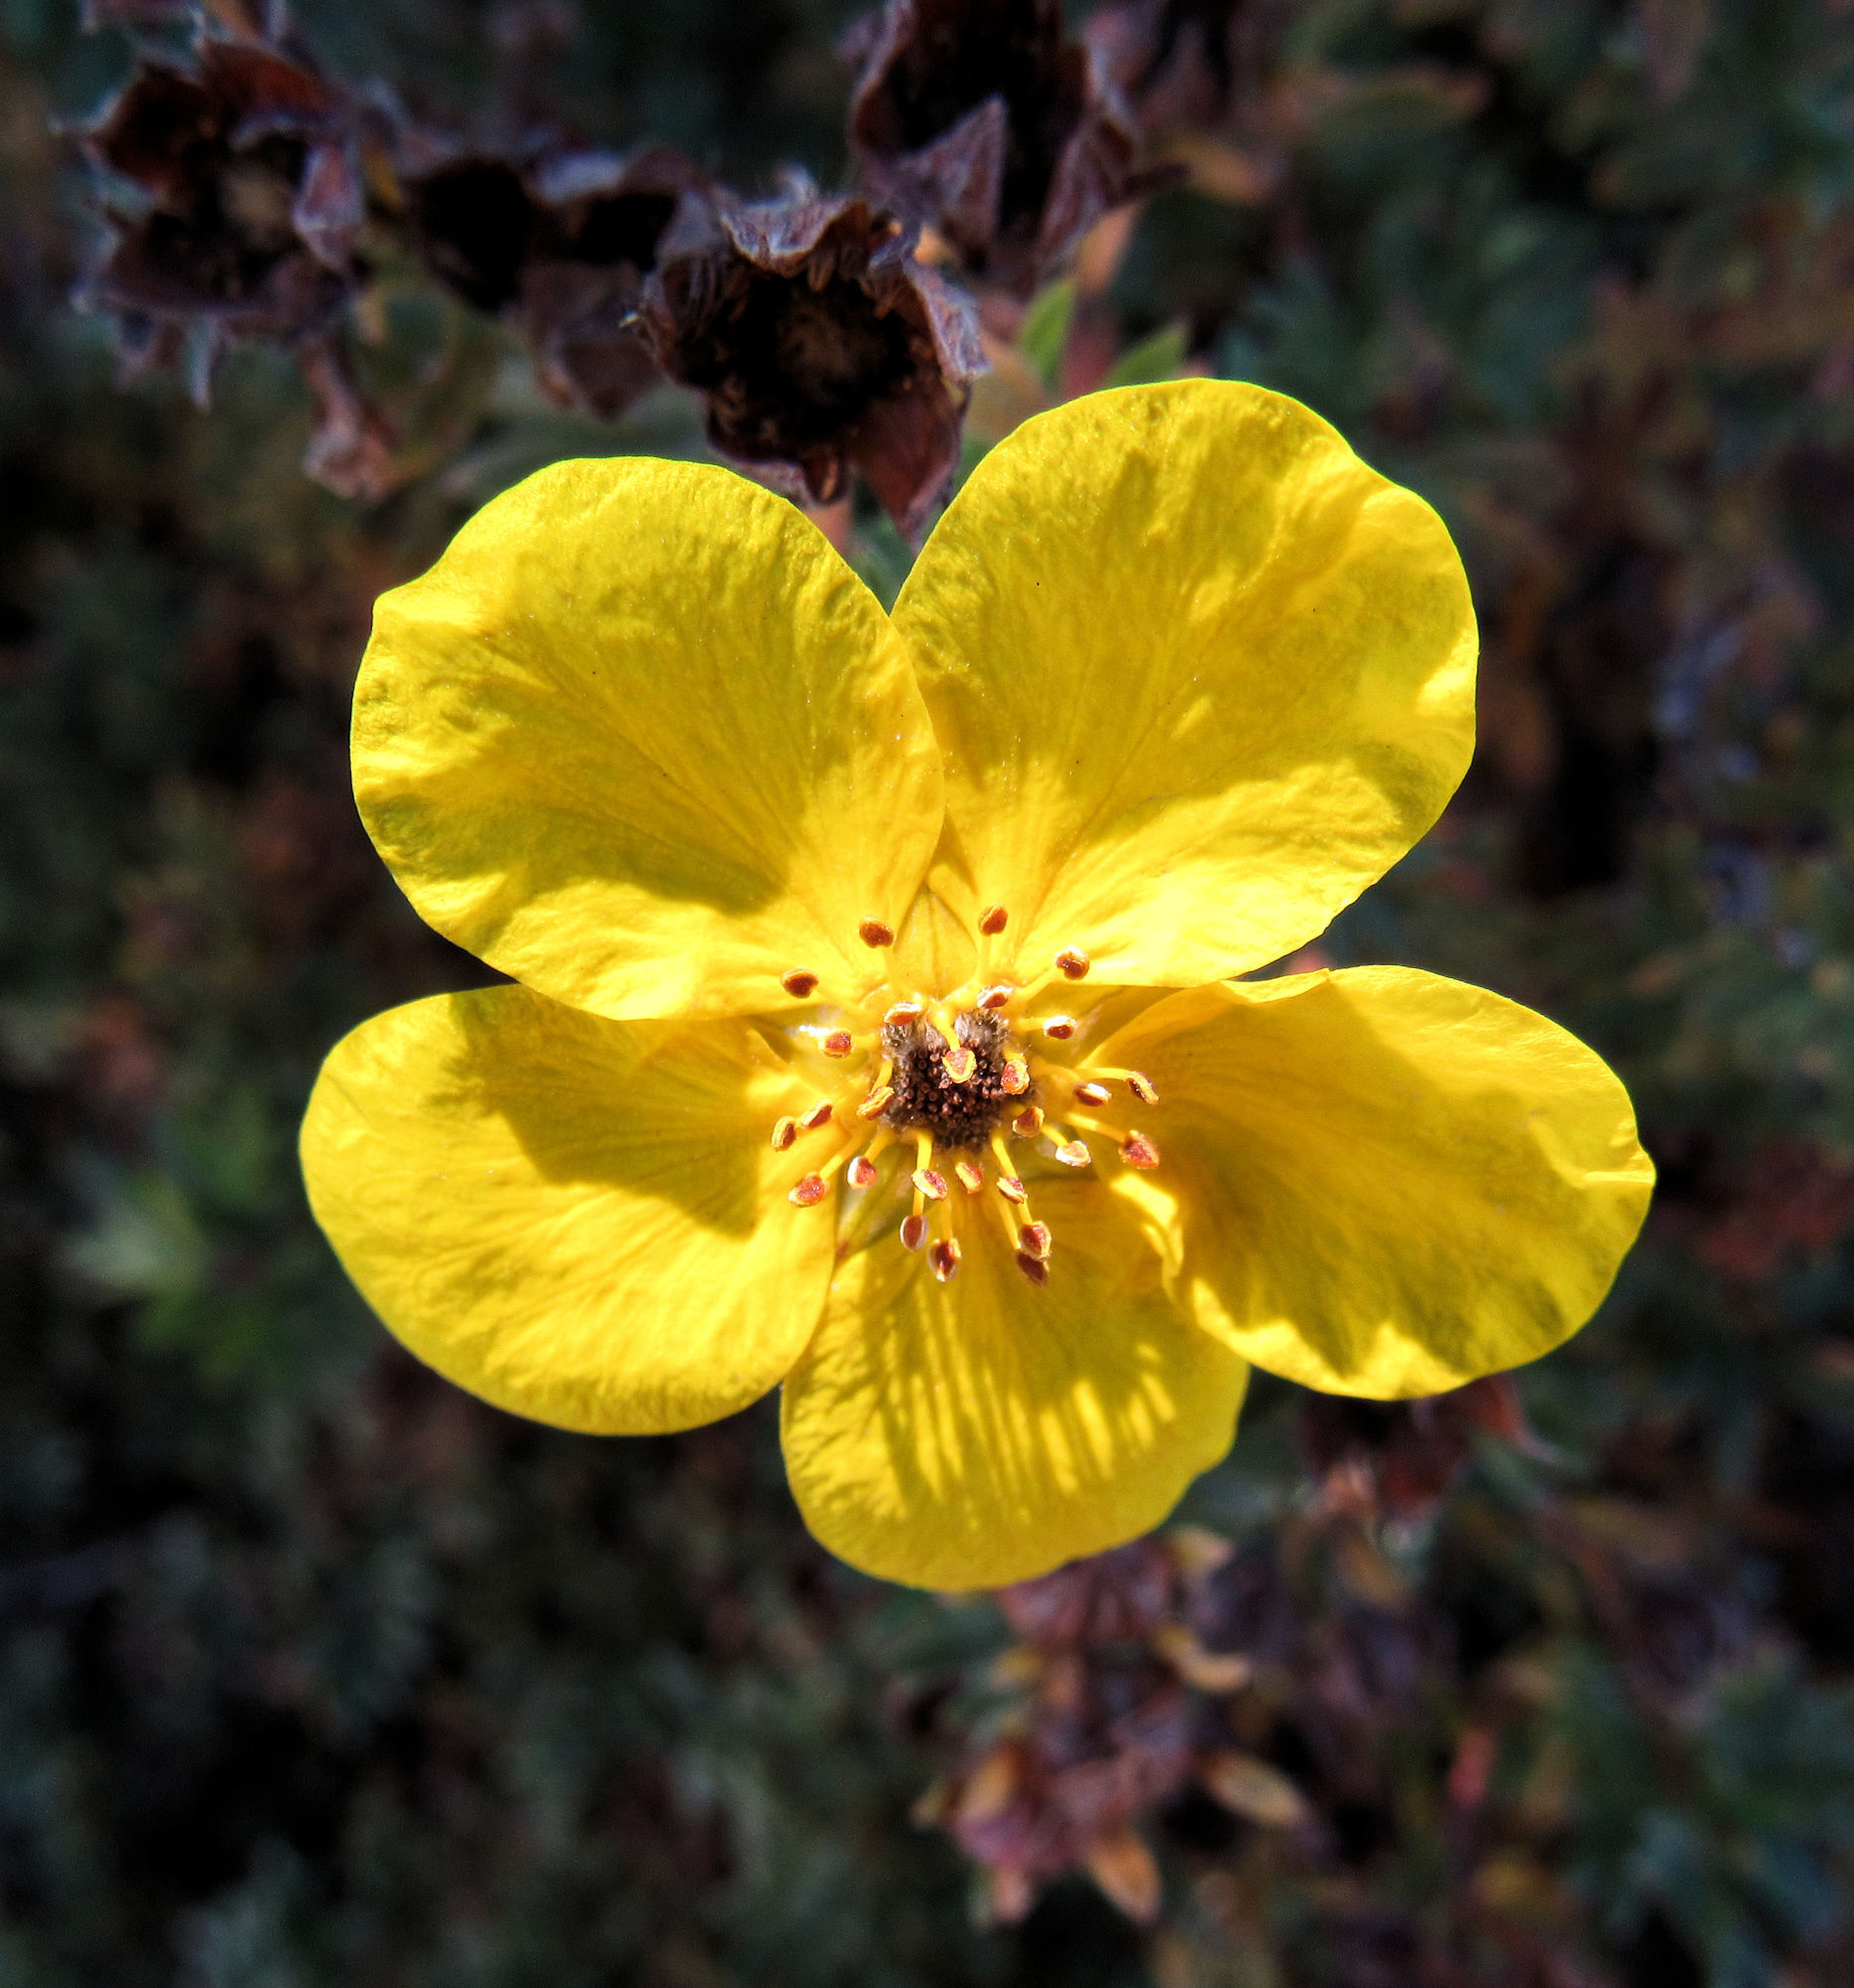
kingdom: Plantae
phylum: Tracheophyta
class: Magnoliopsida
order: Rosales
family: Rosaceae
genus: Dasiphora
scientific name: Dasiphora fruticosa
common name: Shrubby cinquefoil
